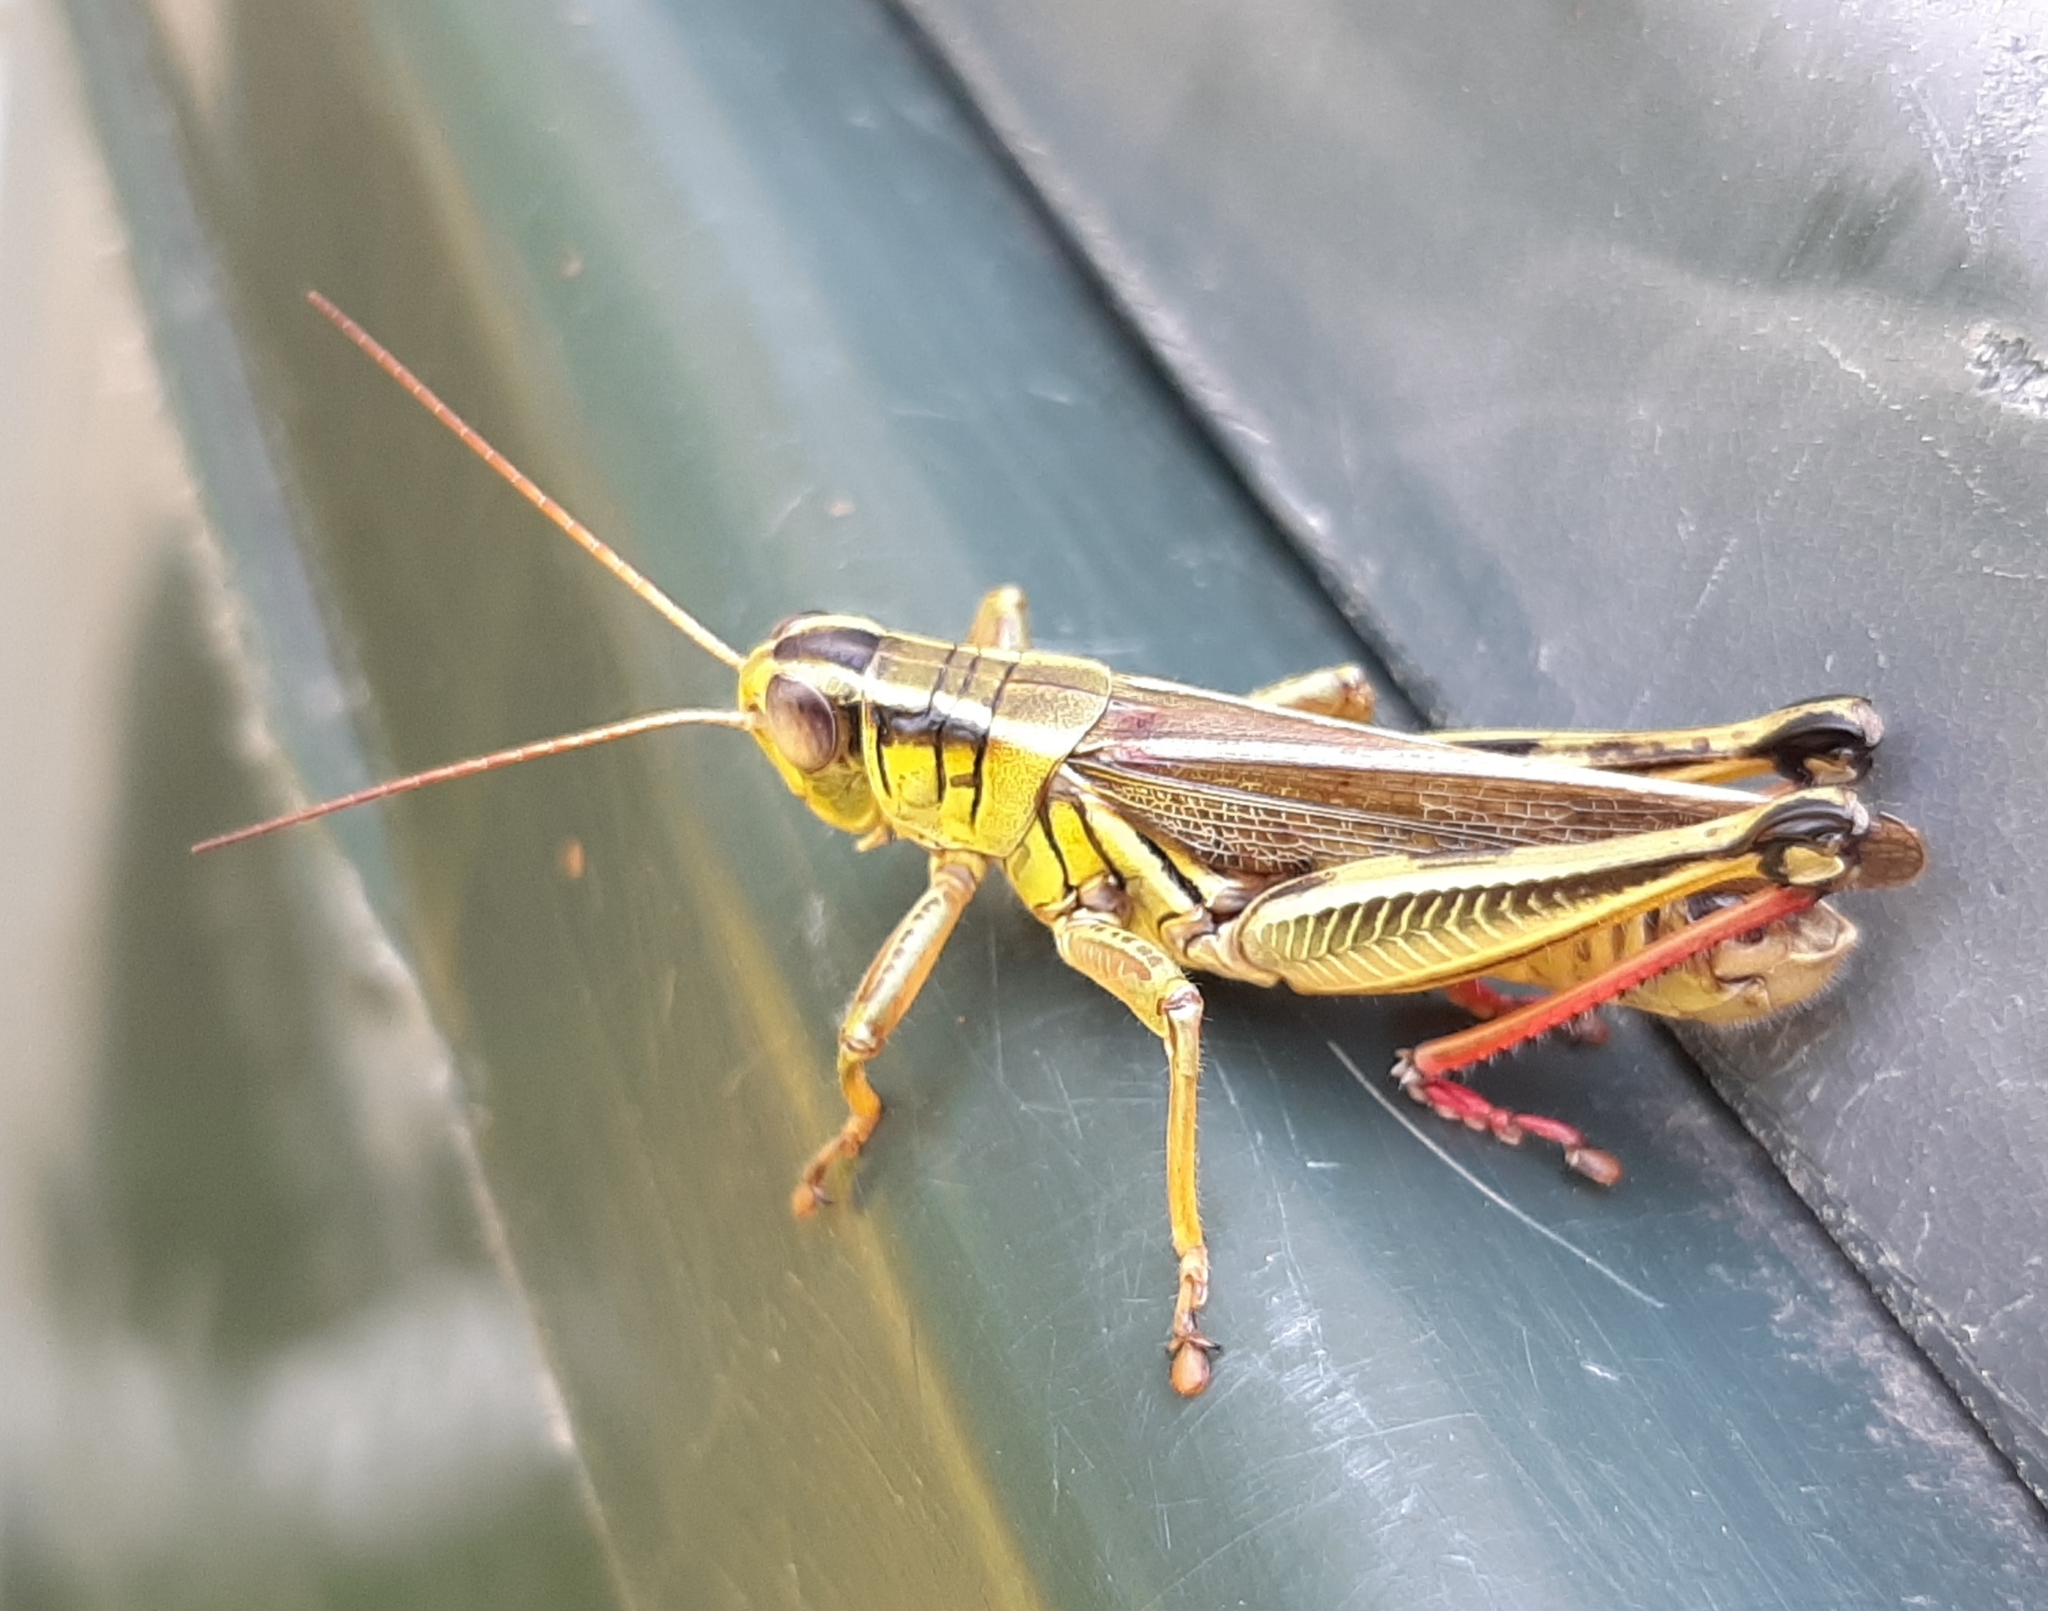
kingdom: Animalia
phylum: Arthropoda
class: Insecta
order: Orthoptera
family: Acrididae
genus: Melanoplus
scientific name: Melanoplus bivittatus
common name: Two-striped grasshopper
